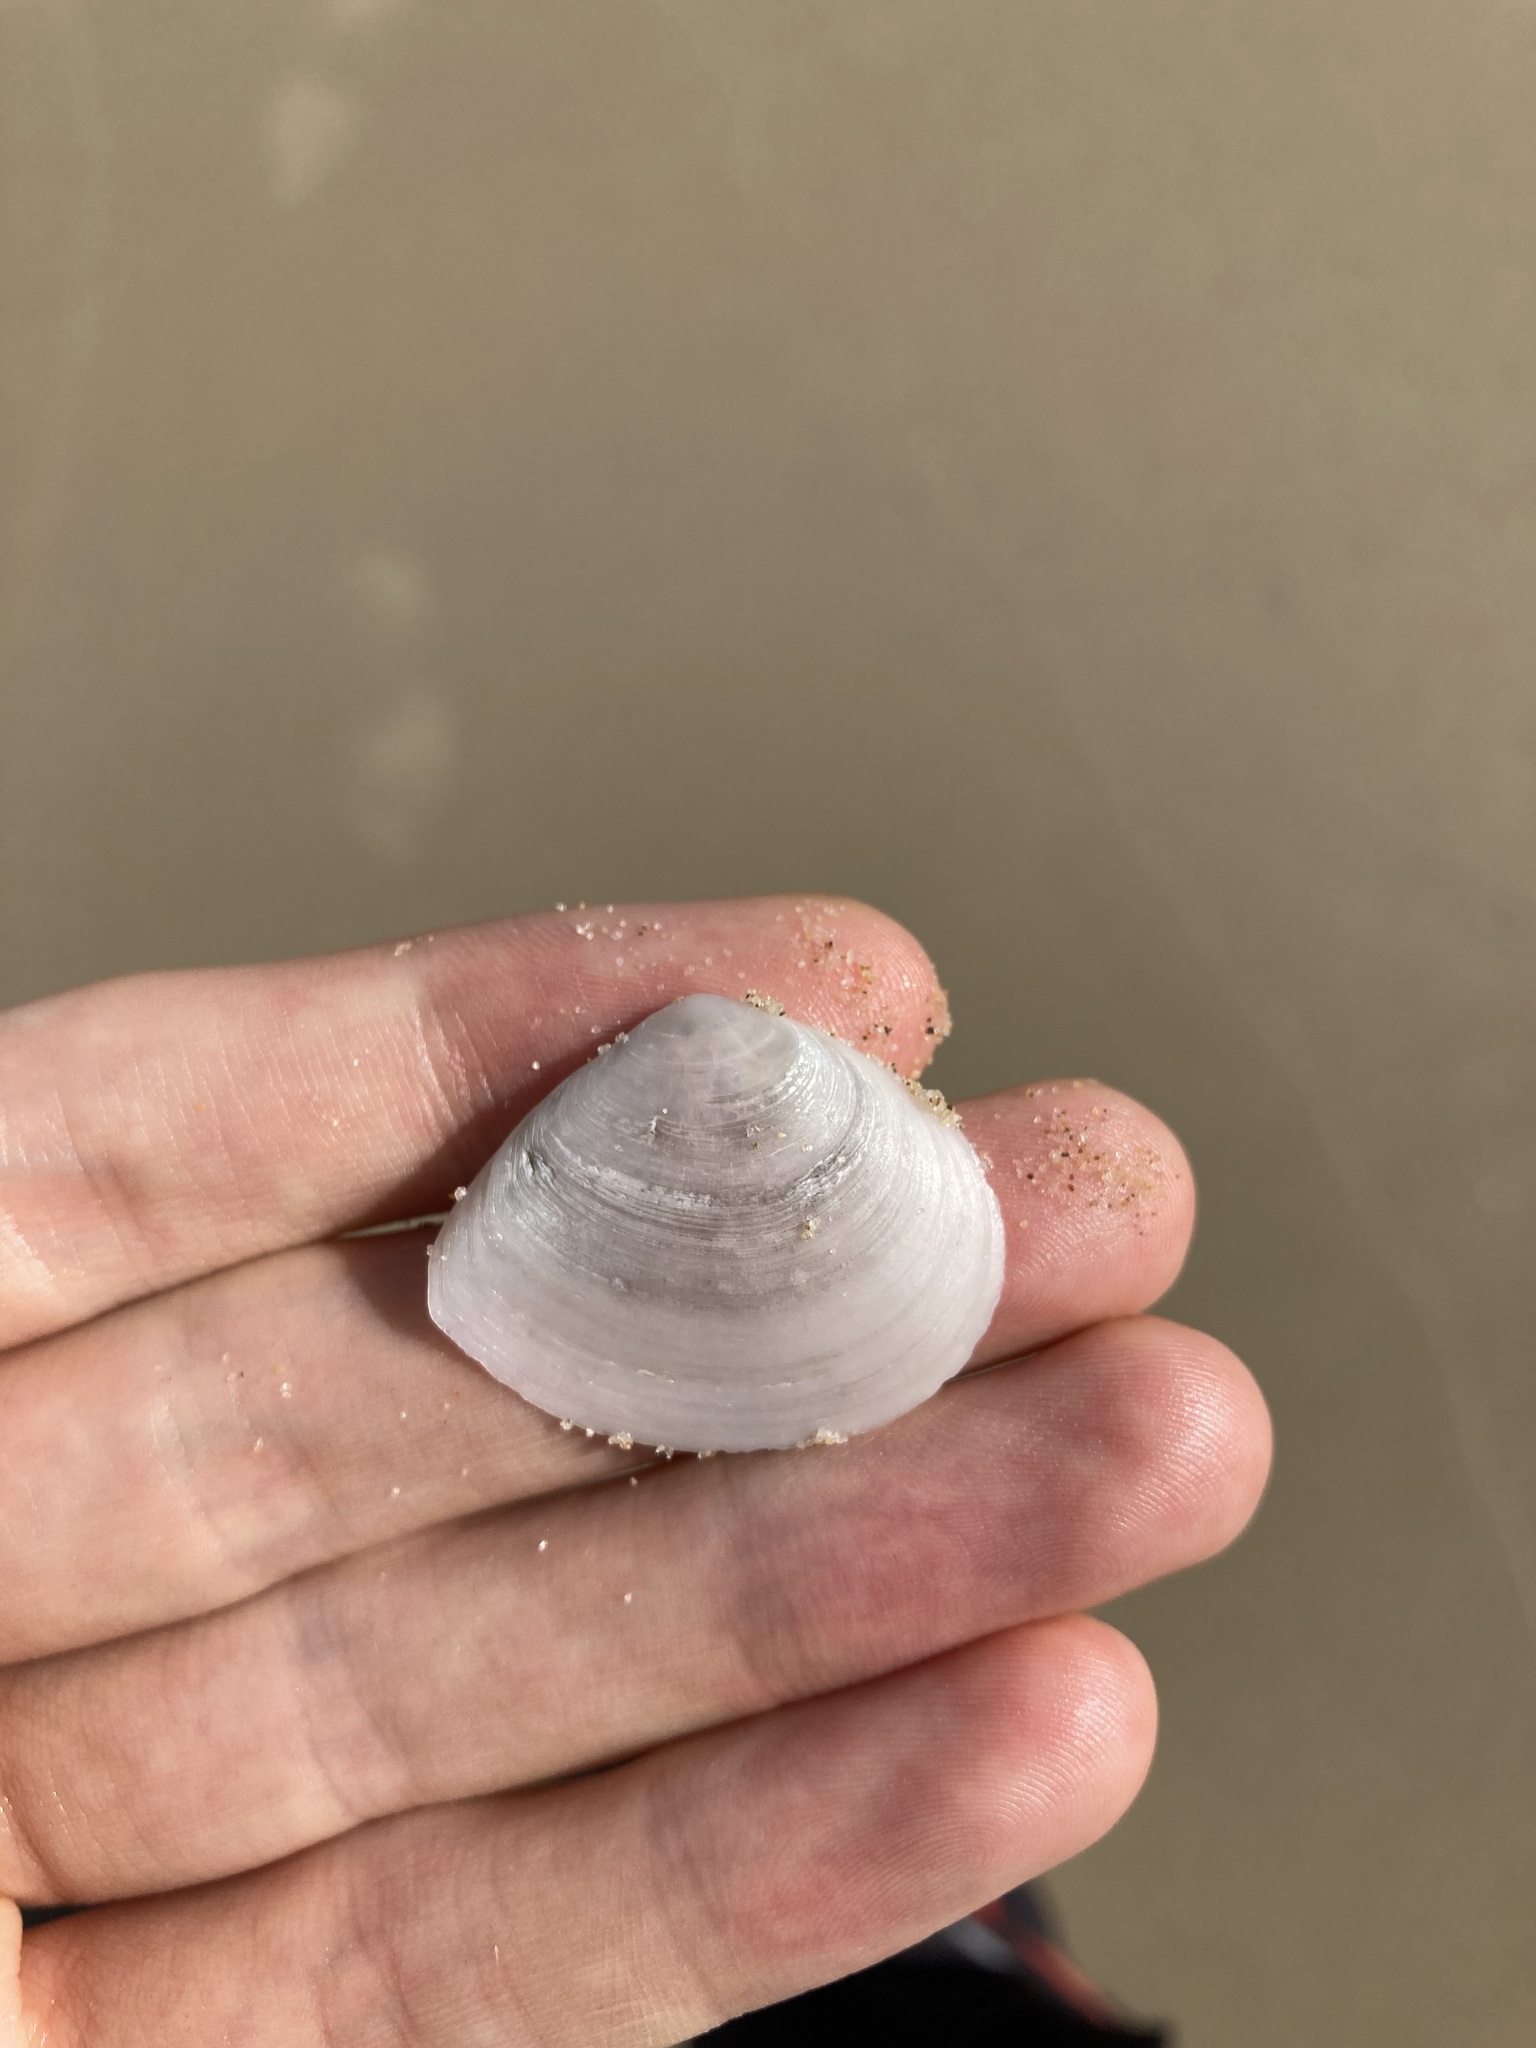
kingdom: Animalia
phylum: Mollusca
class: Bivalvia
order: Cardiida
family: Tellinidae
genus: Macomona
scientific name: Macomona deltoidalis
